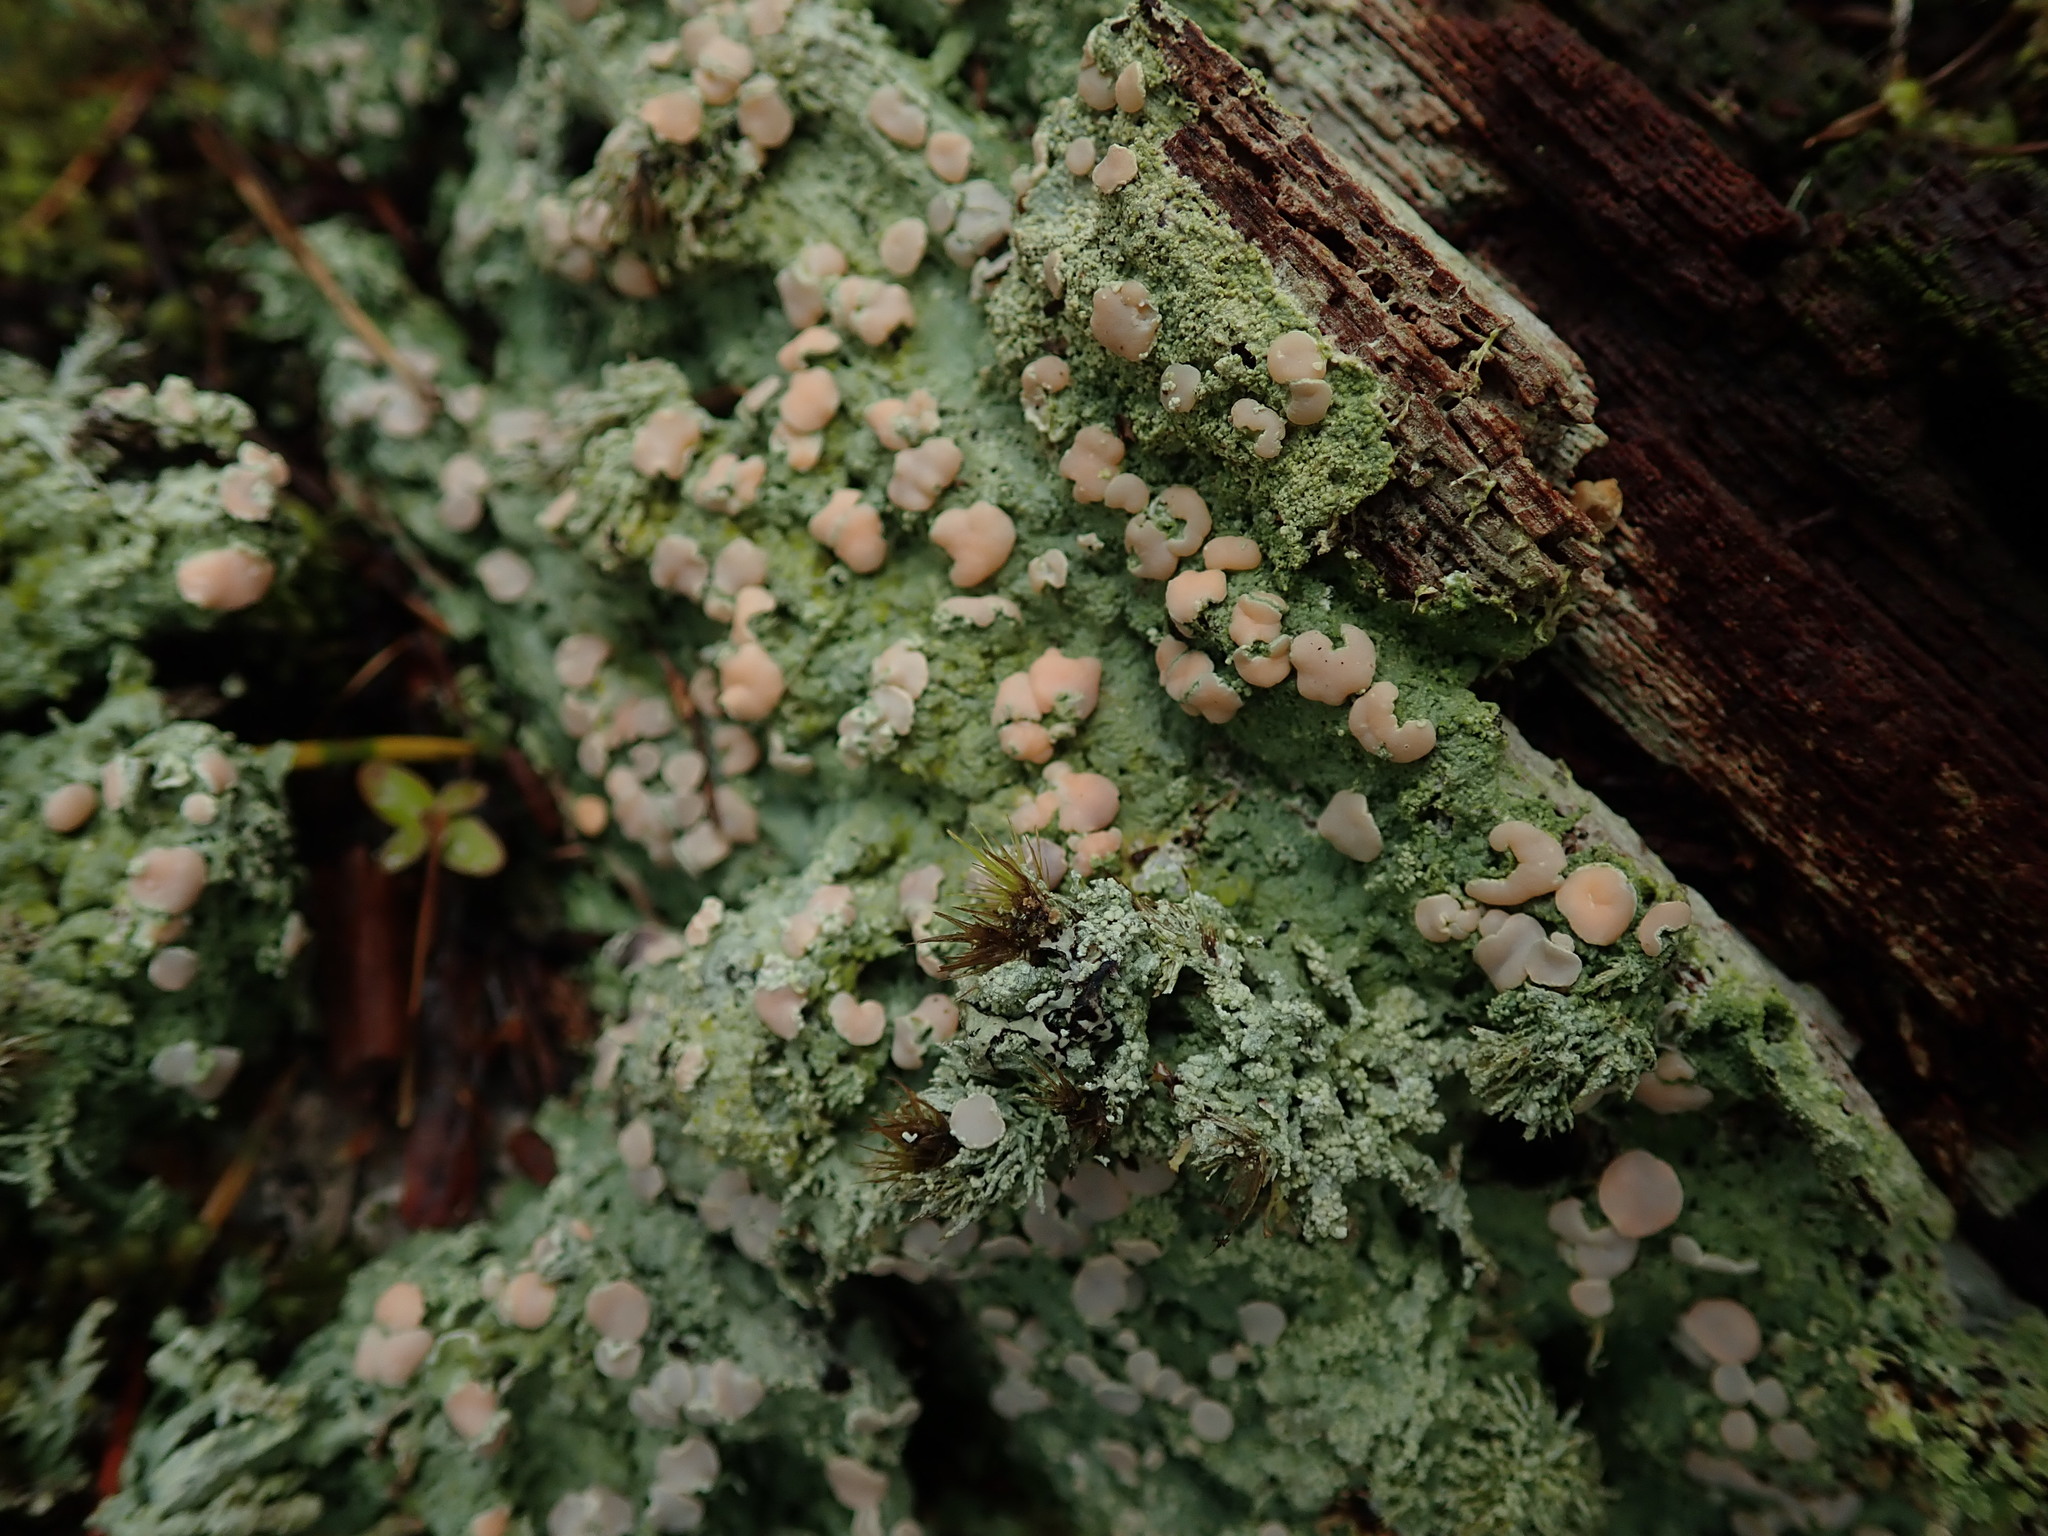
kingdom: Fungi
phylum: Ascomycota
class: Lecanoromycetes
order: Pertusariales
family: Icmadophilaceae
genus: Icmadophila
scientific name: Icmadophila ericetorum
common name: Candy lichen
